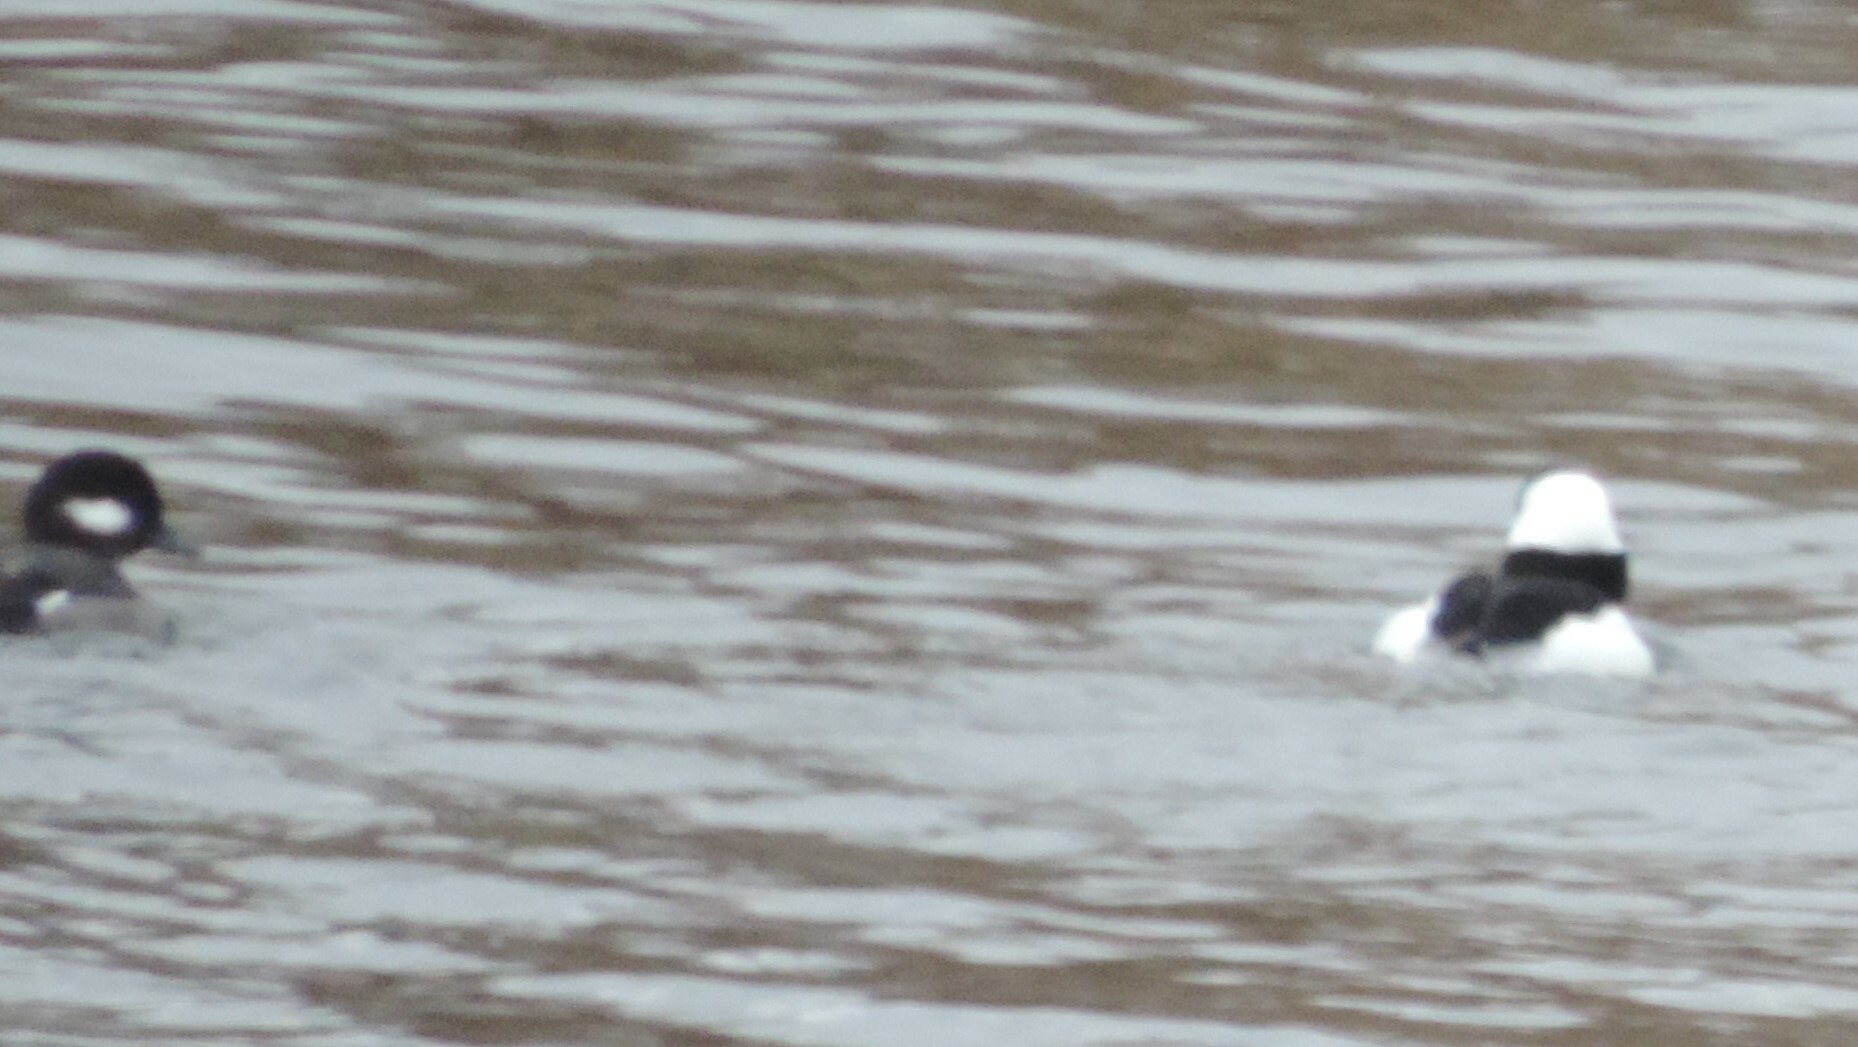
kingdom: Animalia
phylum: Chordata
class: Aves
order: Anseriformes
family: Anatidae
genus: Bucephala
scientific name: Bucephala albeola
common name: Bufflehead
